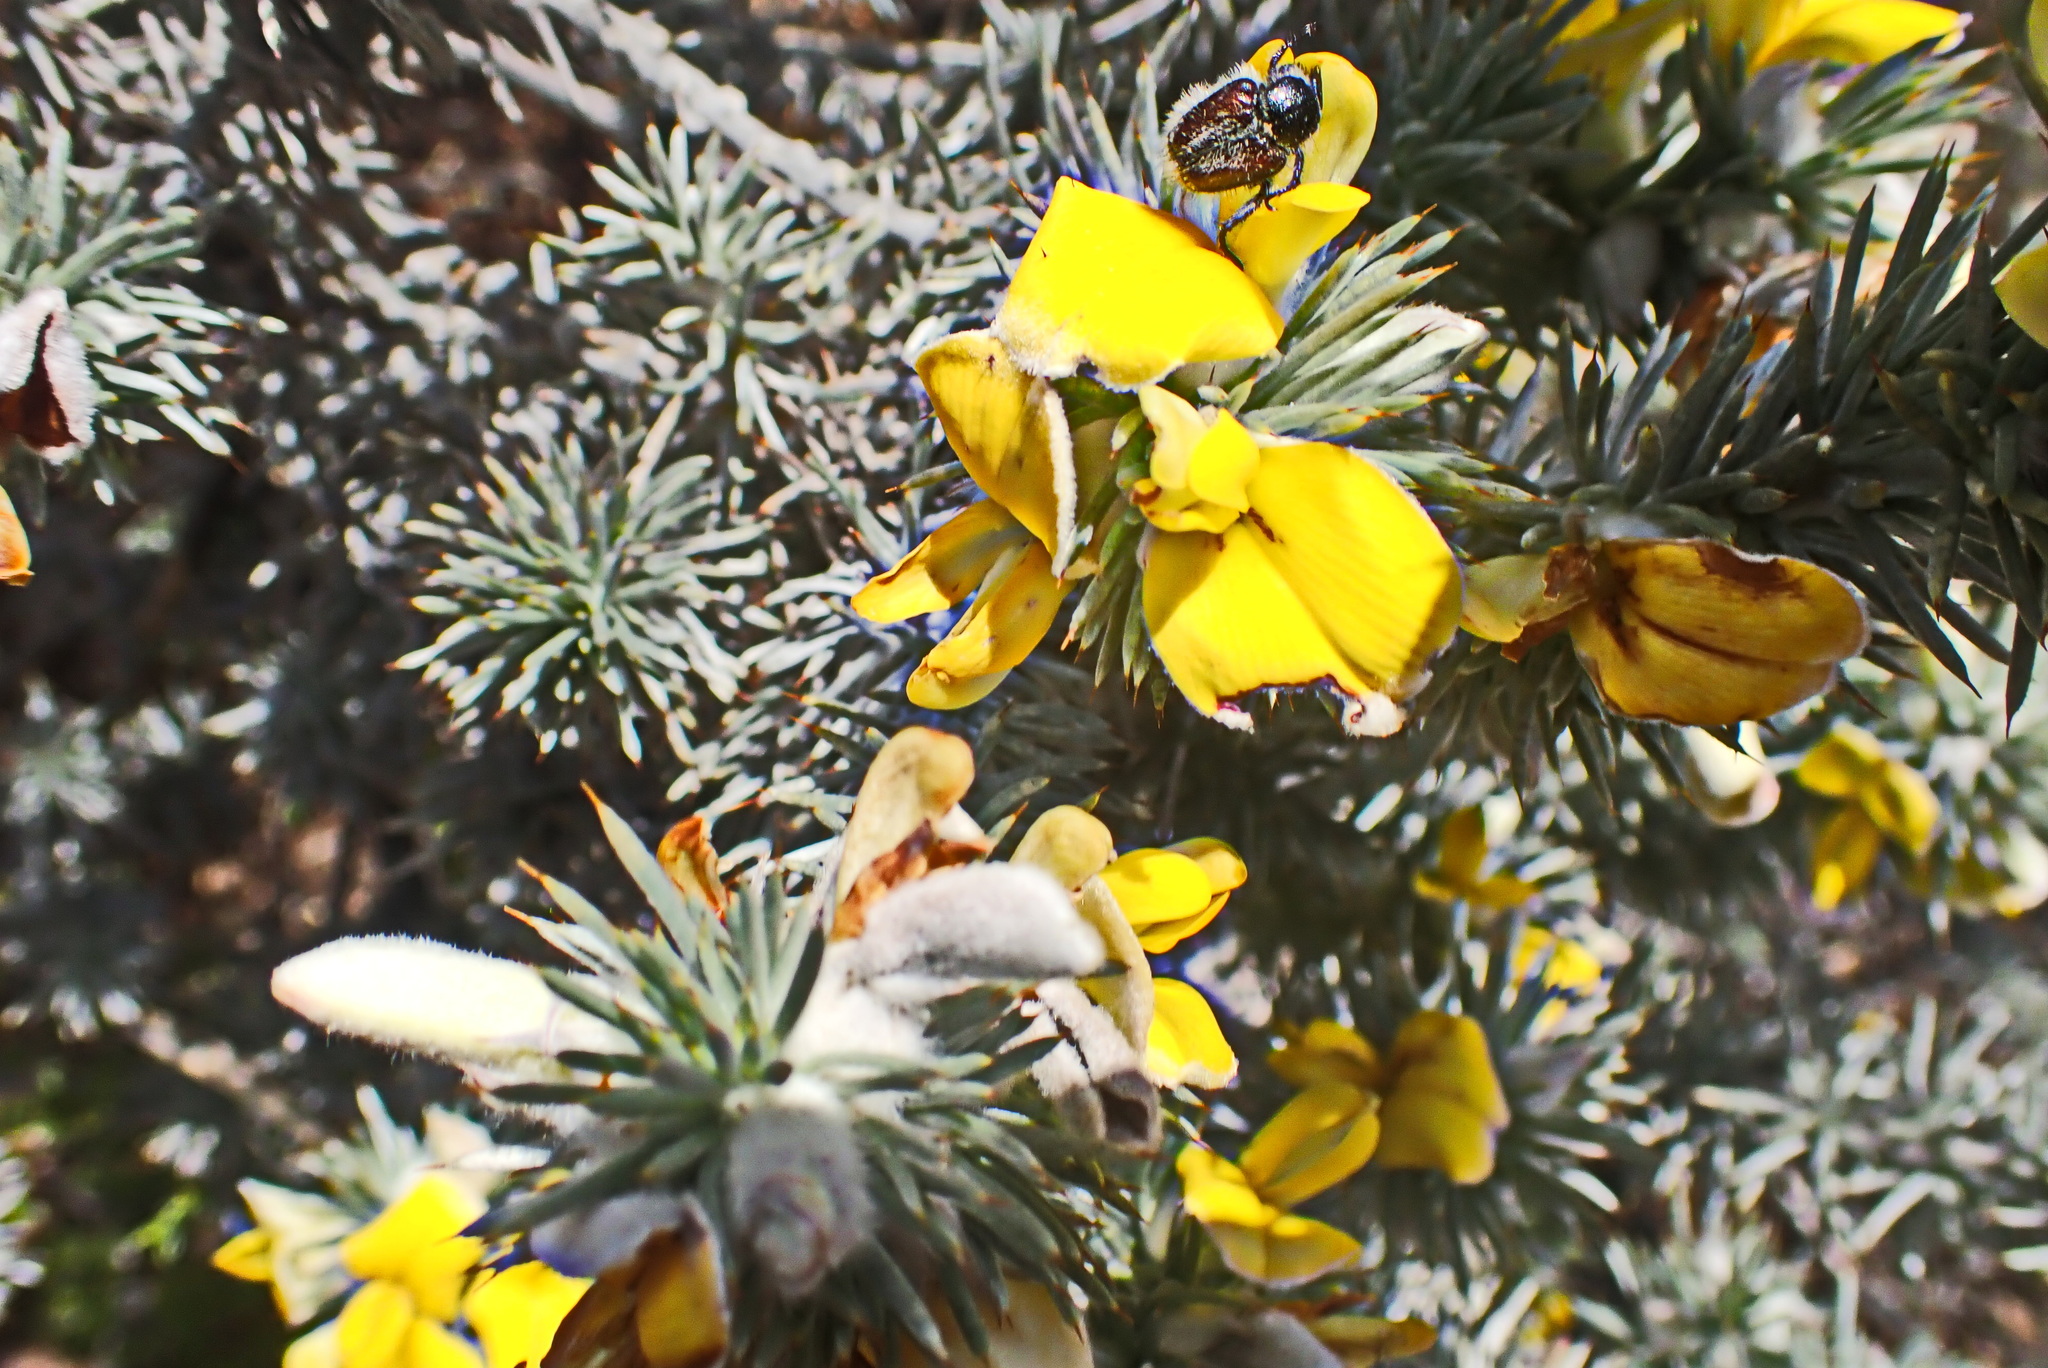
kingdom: Plantae
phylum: Tracheophyta
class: Magnoliopsida
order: Fabales
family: Fabaceae
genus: Aspalathus
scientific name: Aspalathus hystrix
